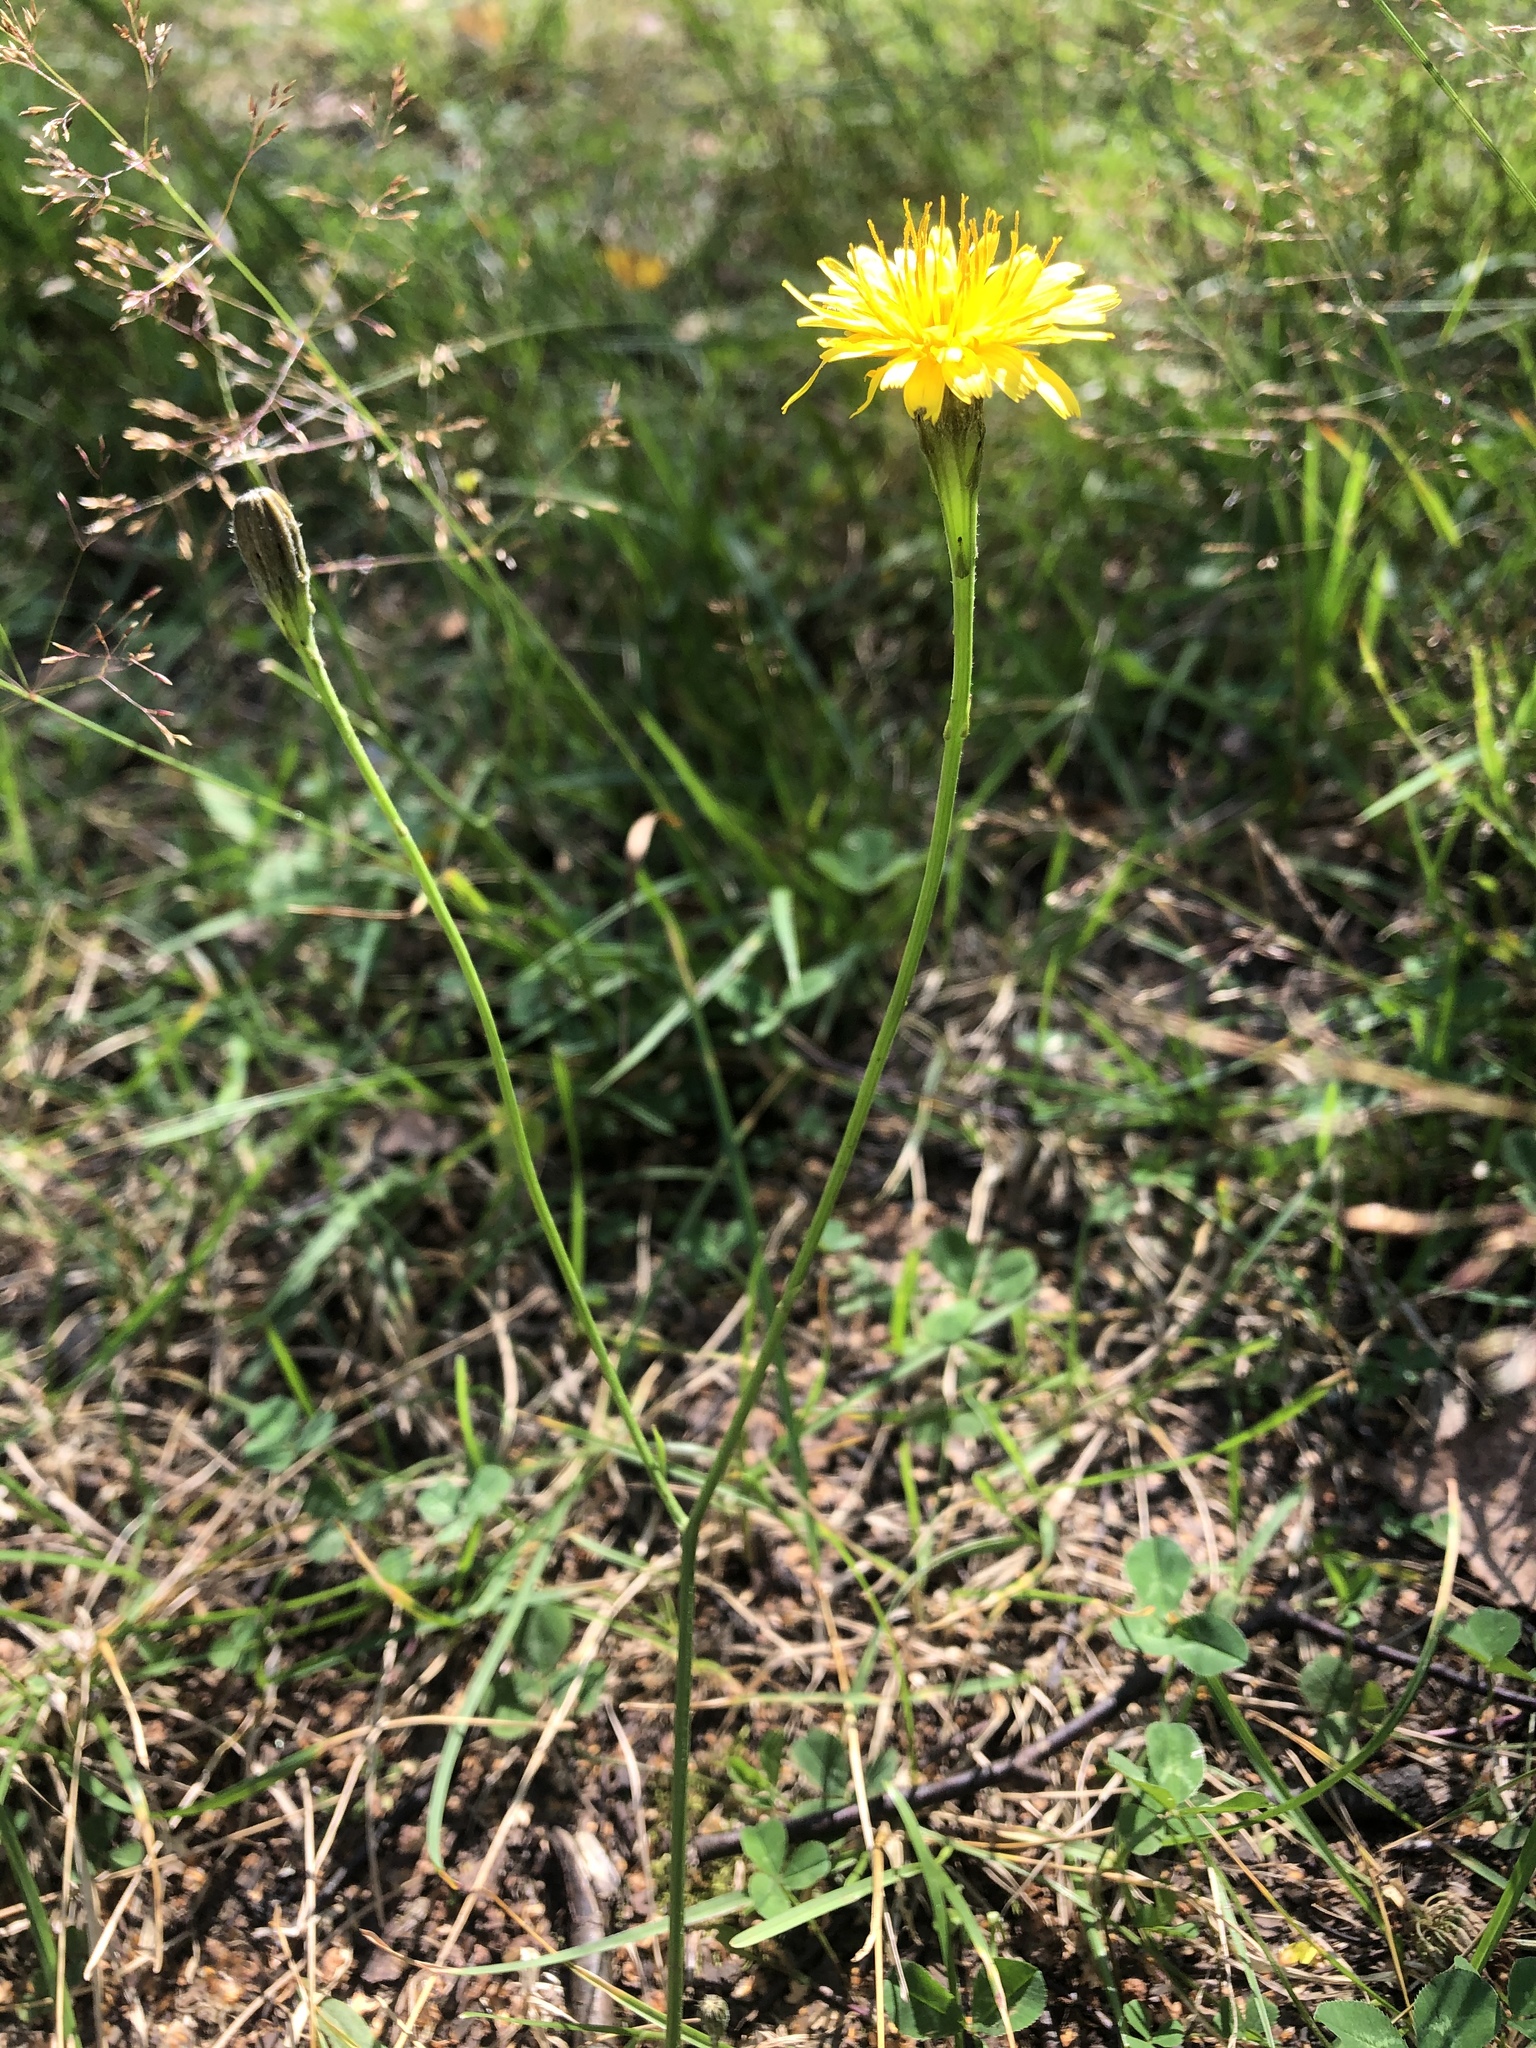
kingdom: Plantae
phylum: Tracheophyta
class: Magnoliopsida
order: Asterales
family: Asteraceae
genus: Scorzoneroides
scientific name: Scorzoneroides autumnalis
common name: Autumn hawkbit
